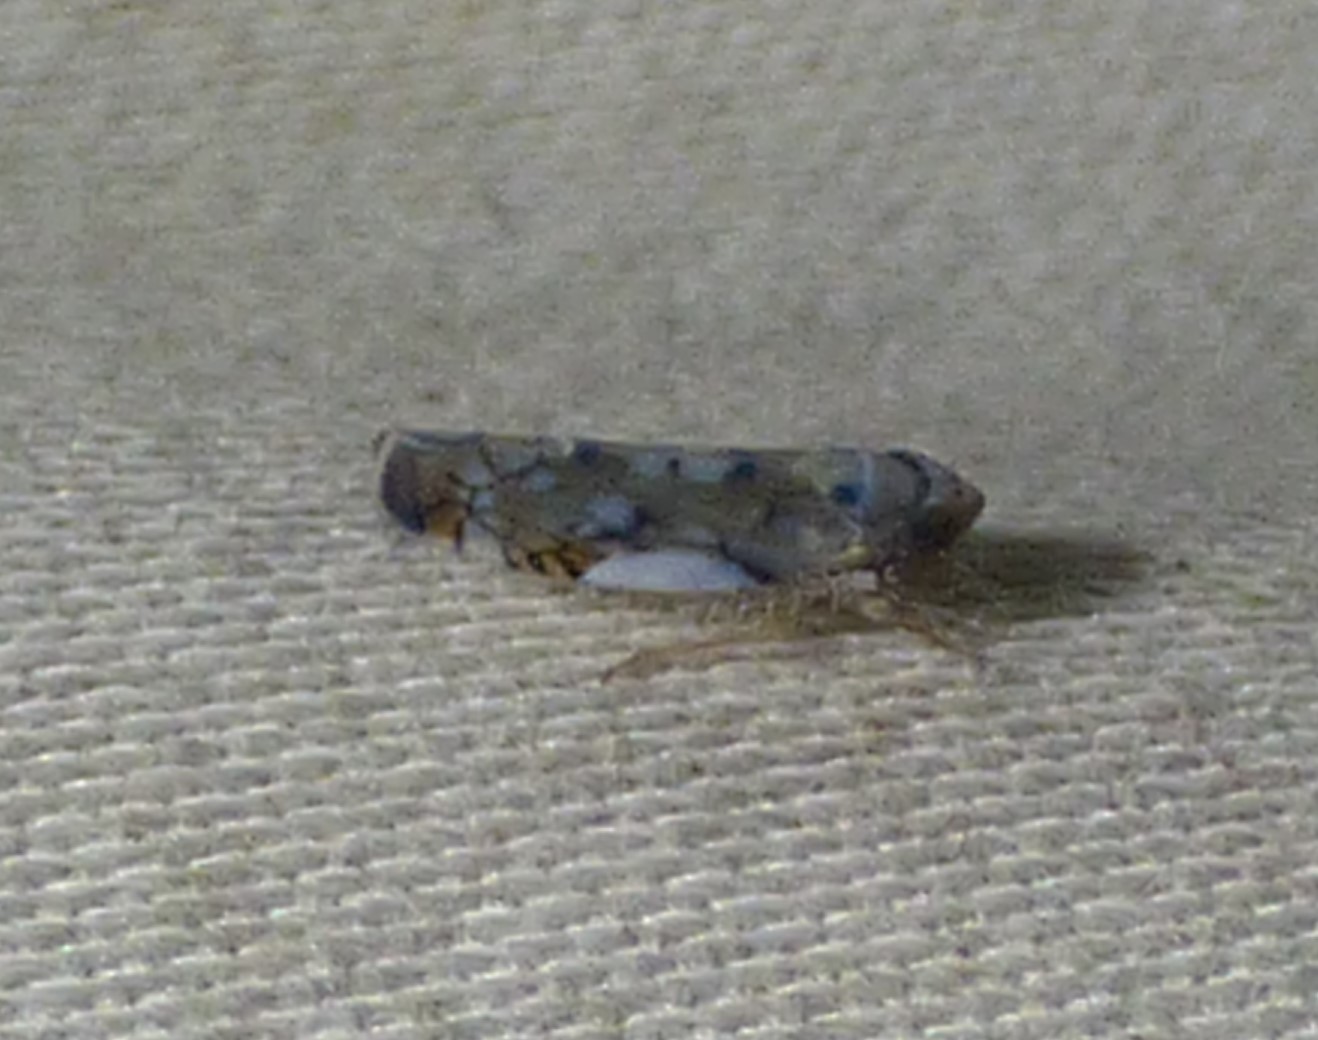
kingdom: Animalia
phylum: Arthropoda
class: Insecta
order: Hemiptera
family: Cicadellidae
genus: Scaphoideus
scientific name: Scaphoideus opalinus
